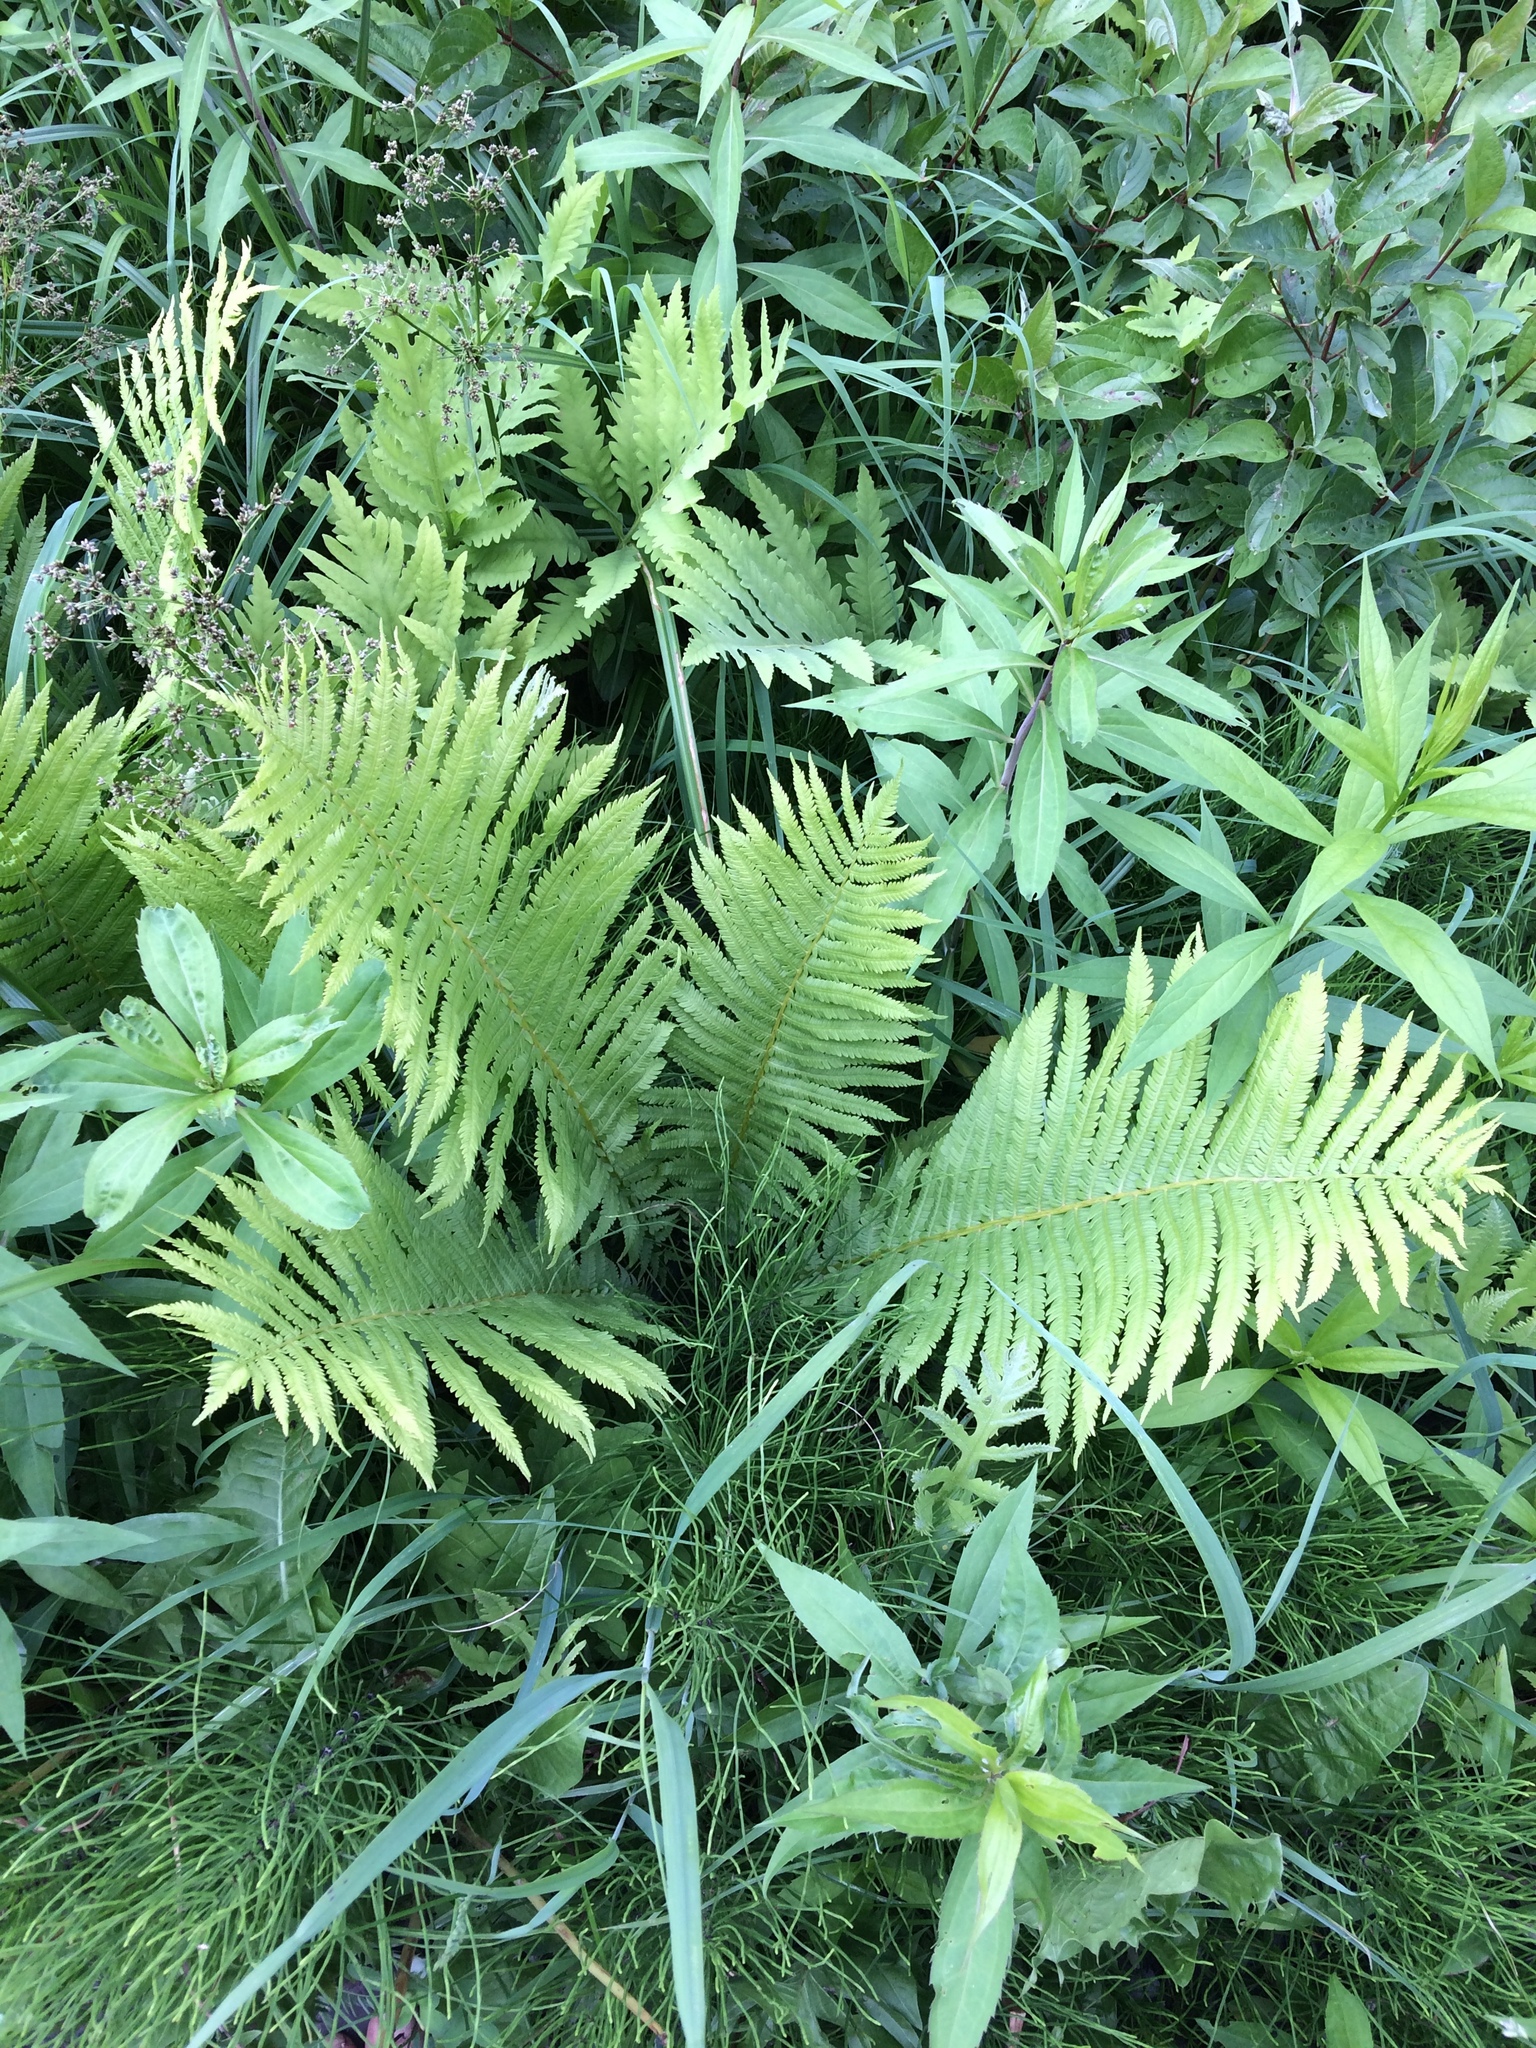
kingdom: Plantae
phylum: Tracheophyta
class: Polypodiopsida
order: Polypodiales
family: Onocleaceae
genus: Matteuccia
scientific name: Matteuccia struthiopteris
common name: Ostrich fern
